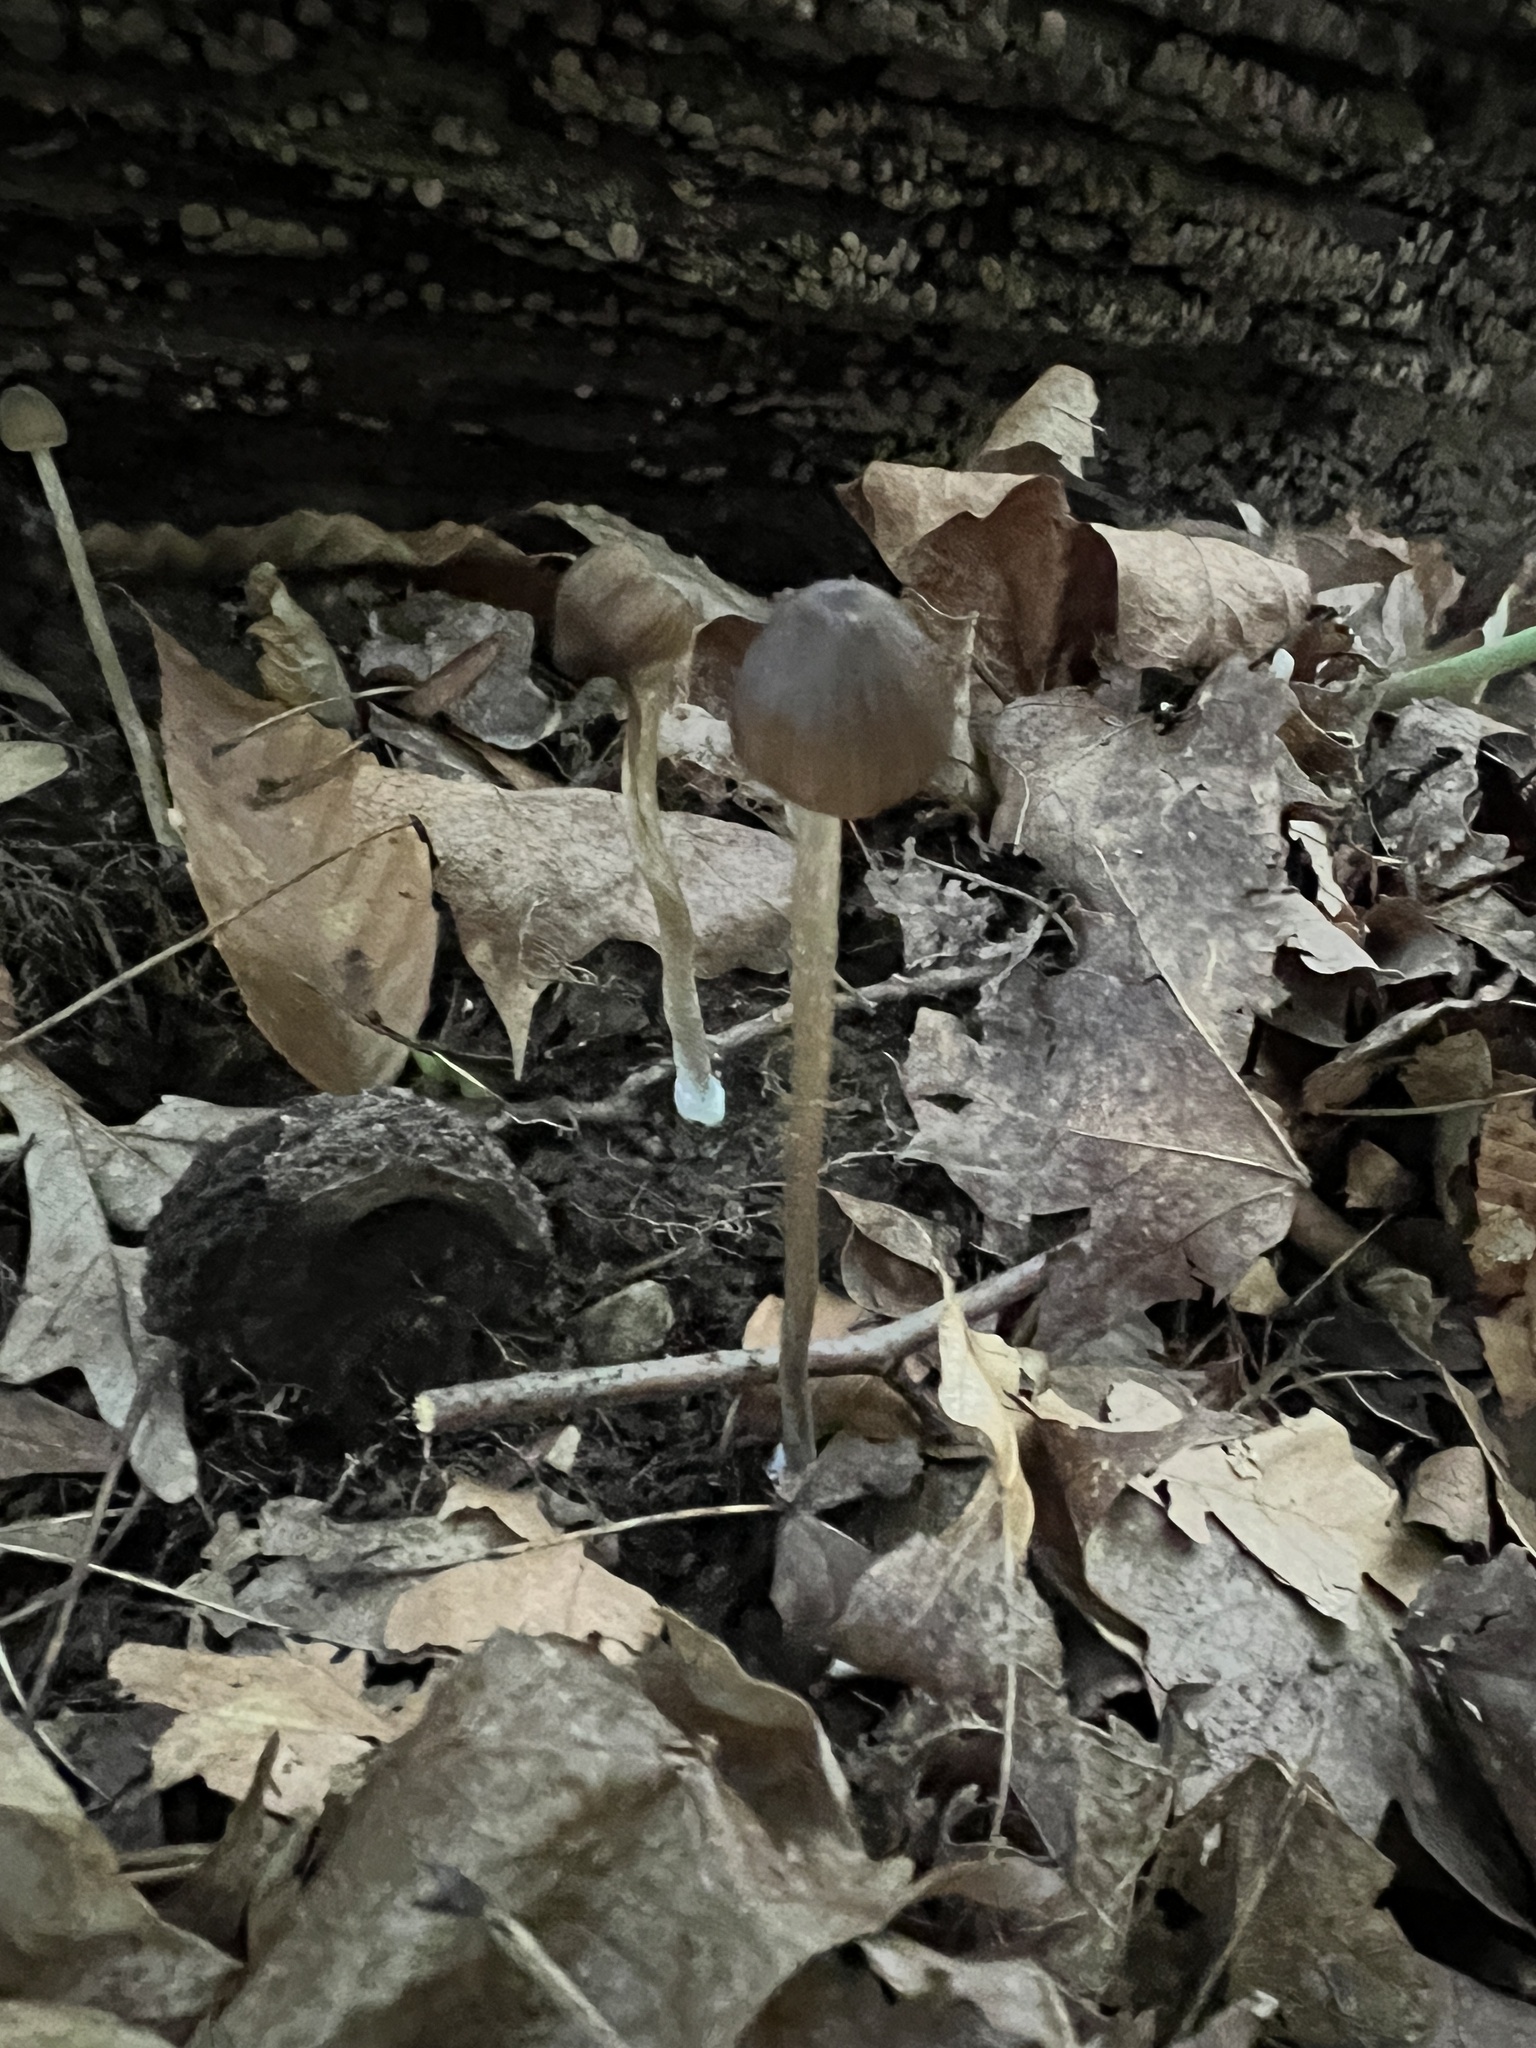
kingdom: Fungi
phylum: Basidiomycota
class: Agaricomycetes
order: Agaricales
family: Entolomataceae
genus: Entoloma
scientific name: Entoloma olivaceomarginatum
